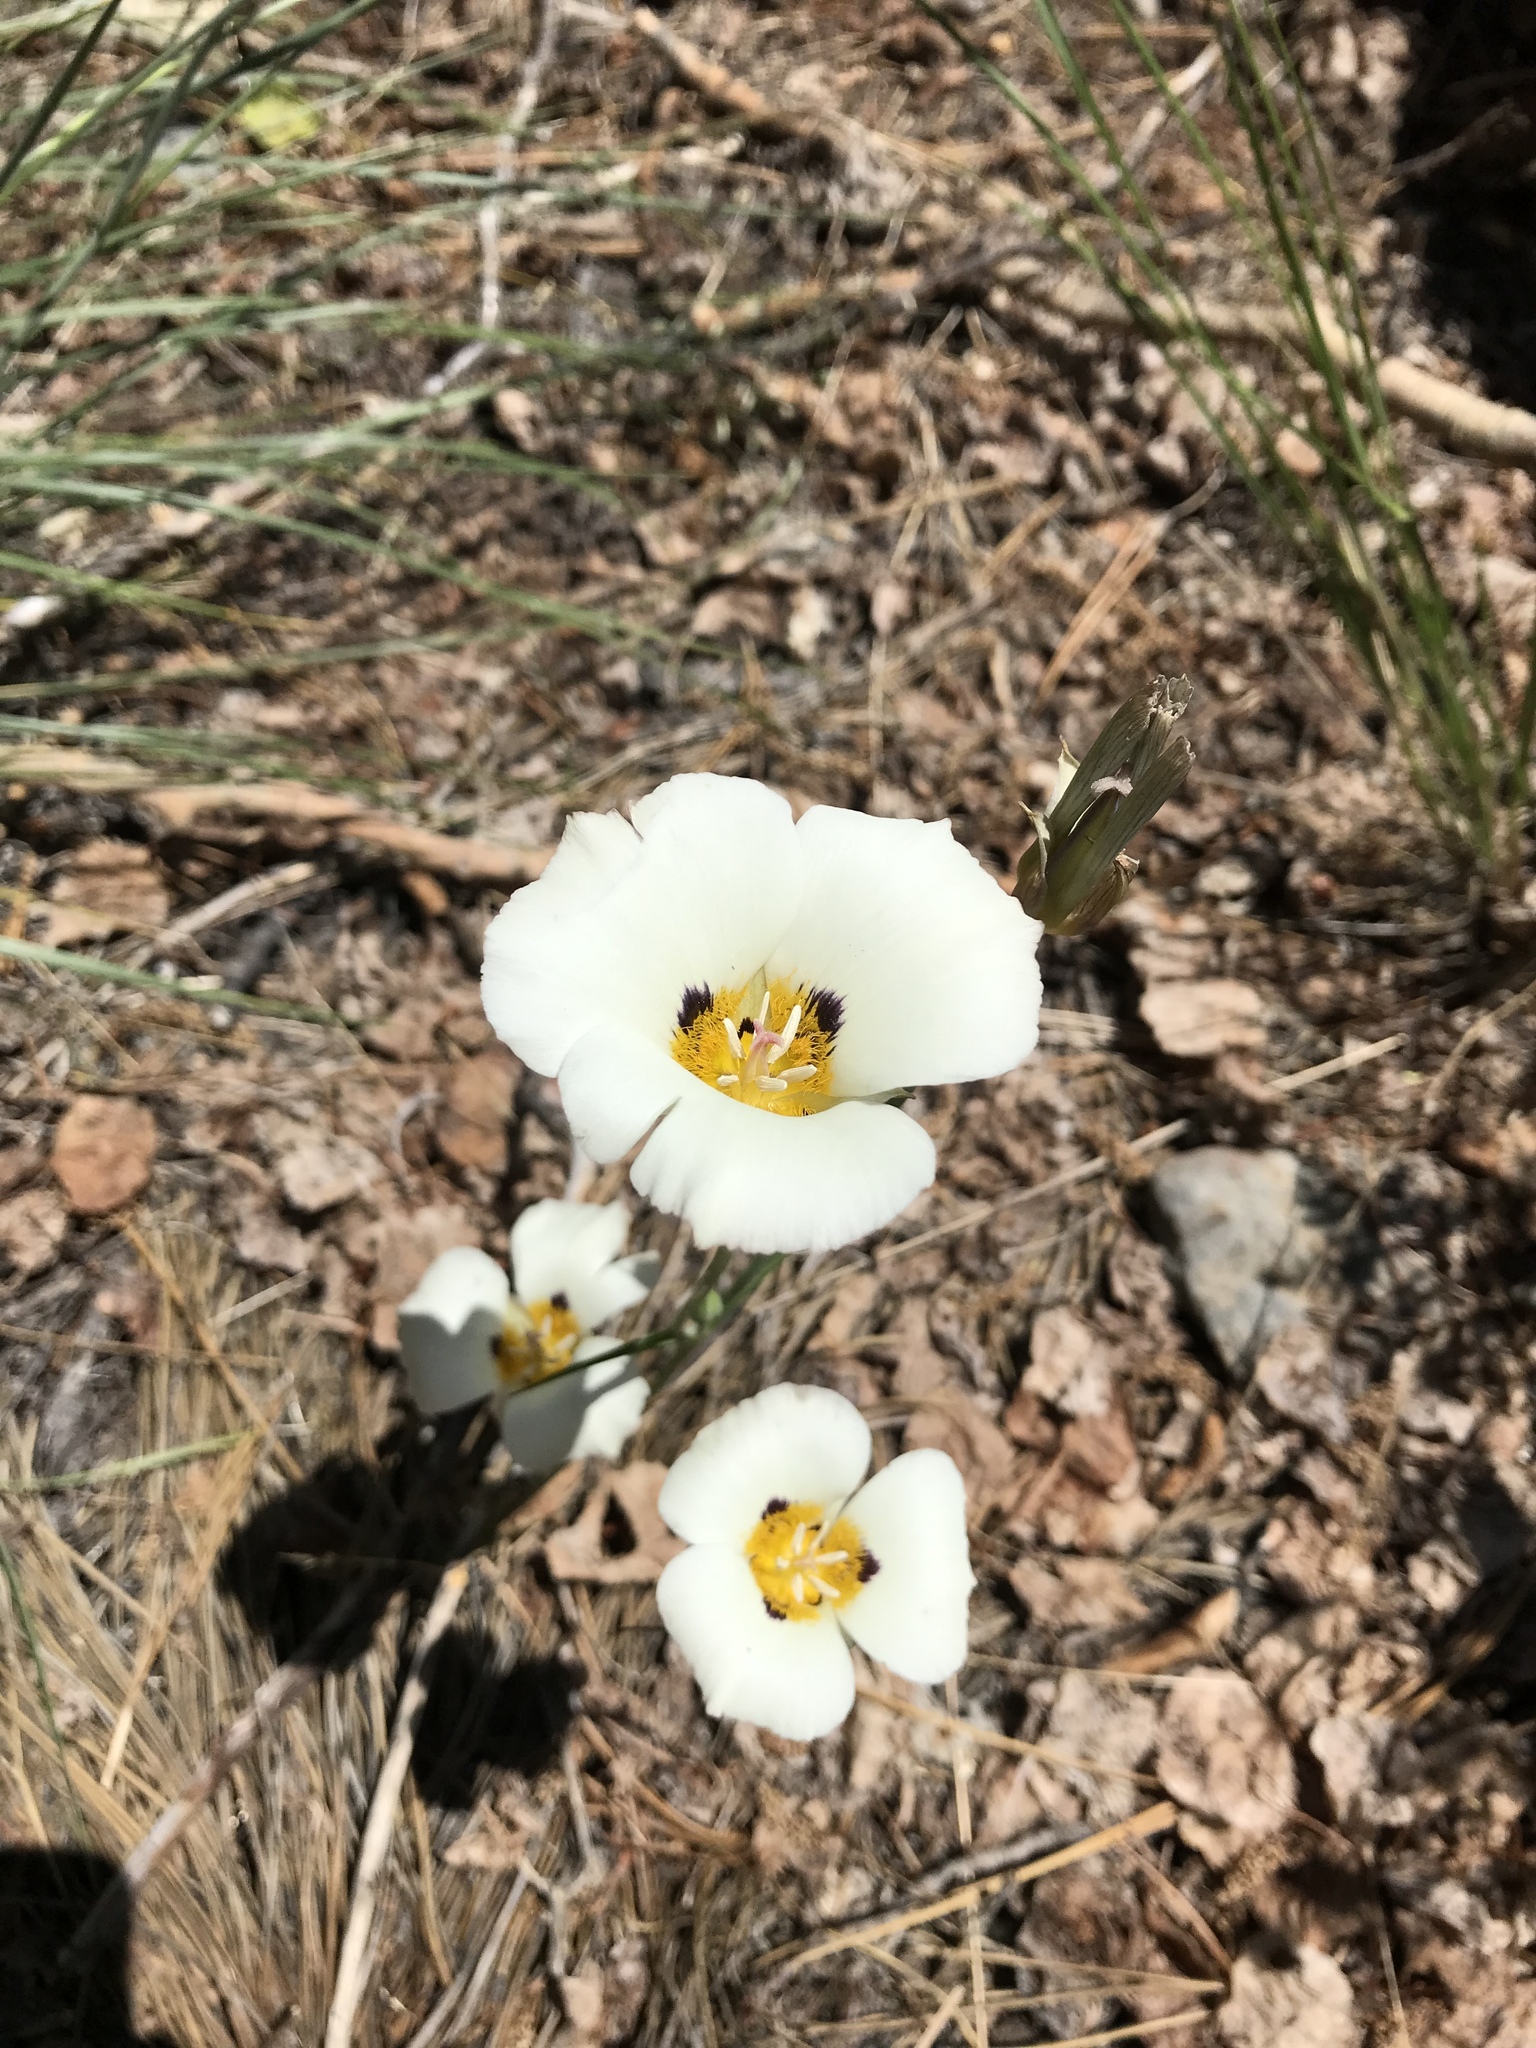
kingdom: Plantae
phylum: Tracheophyta
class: Liliopsida
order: Liliales
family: Liliaceae
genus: Calochortus
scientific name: Calochortus leichtlinii
